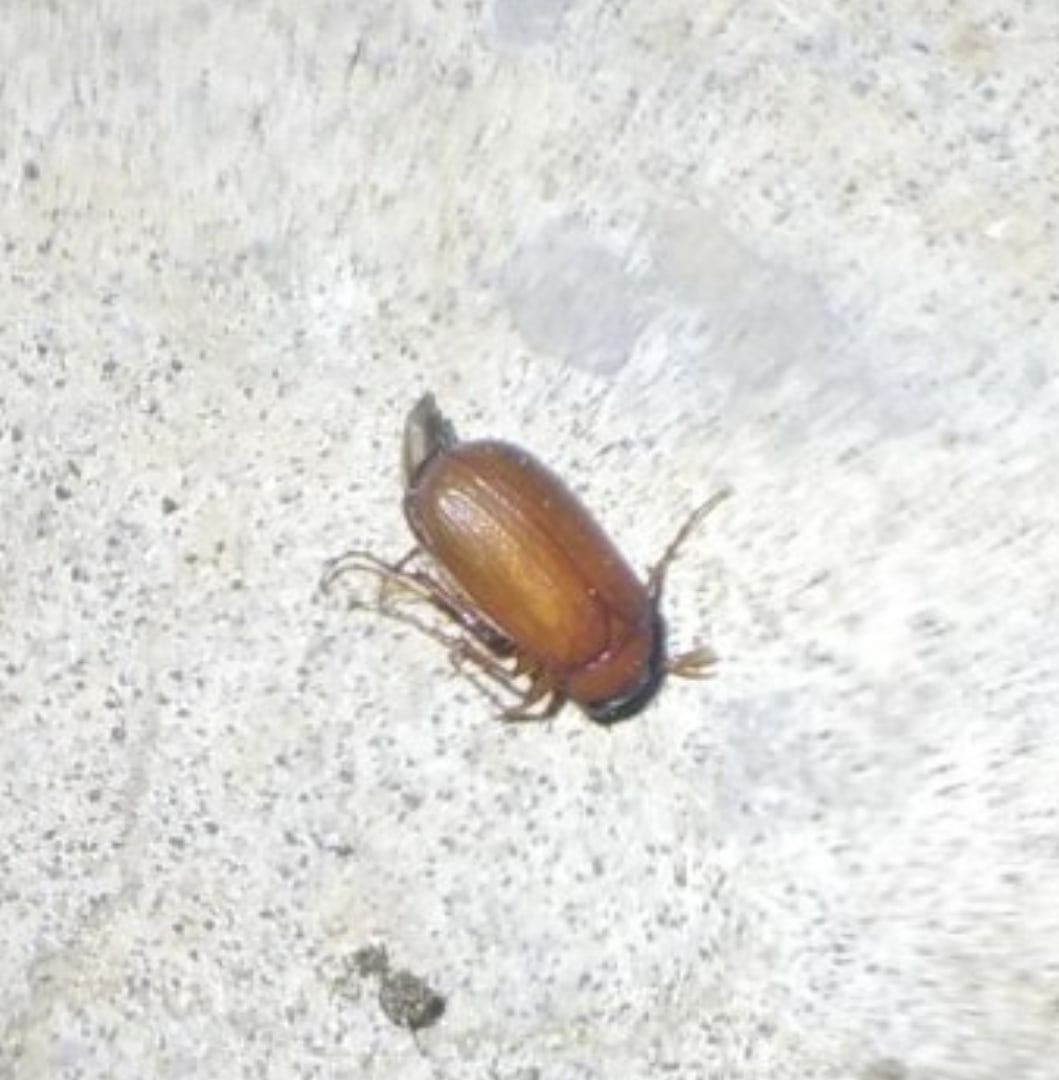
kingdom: Animalia
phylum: Arthropoda
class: Insecta
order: Coleoptera
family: Scarabaeidae
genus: Serica
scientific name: Serica brunnea
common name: Brown chafer
